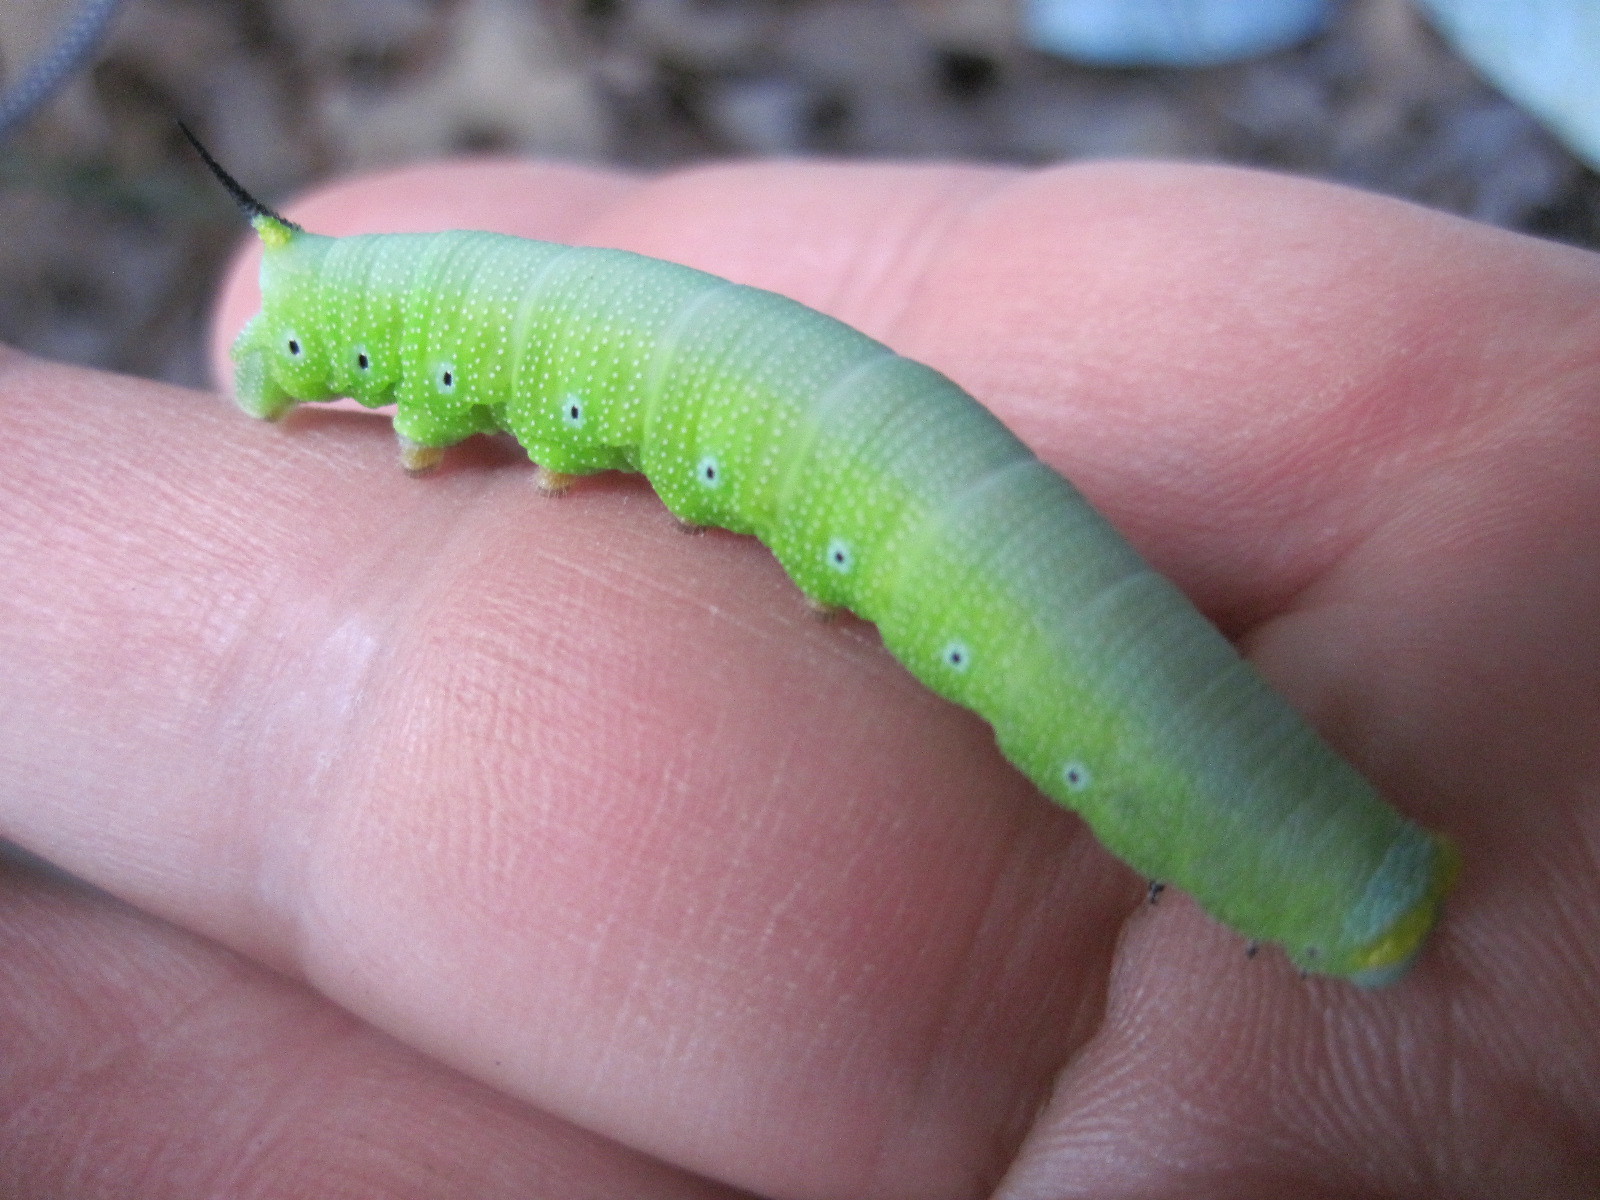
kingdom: Animalia
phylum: Arthropoda
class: Insecta
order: Lepidoptera
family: Sphingidae
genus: Hemaris
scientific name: Hemaris diffinis
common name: Bumblebee moth
